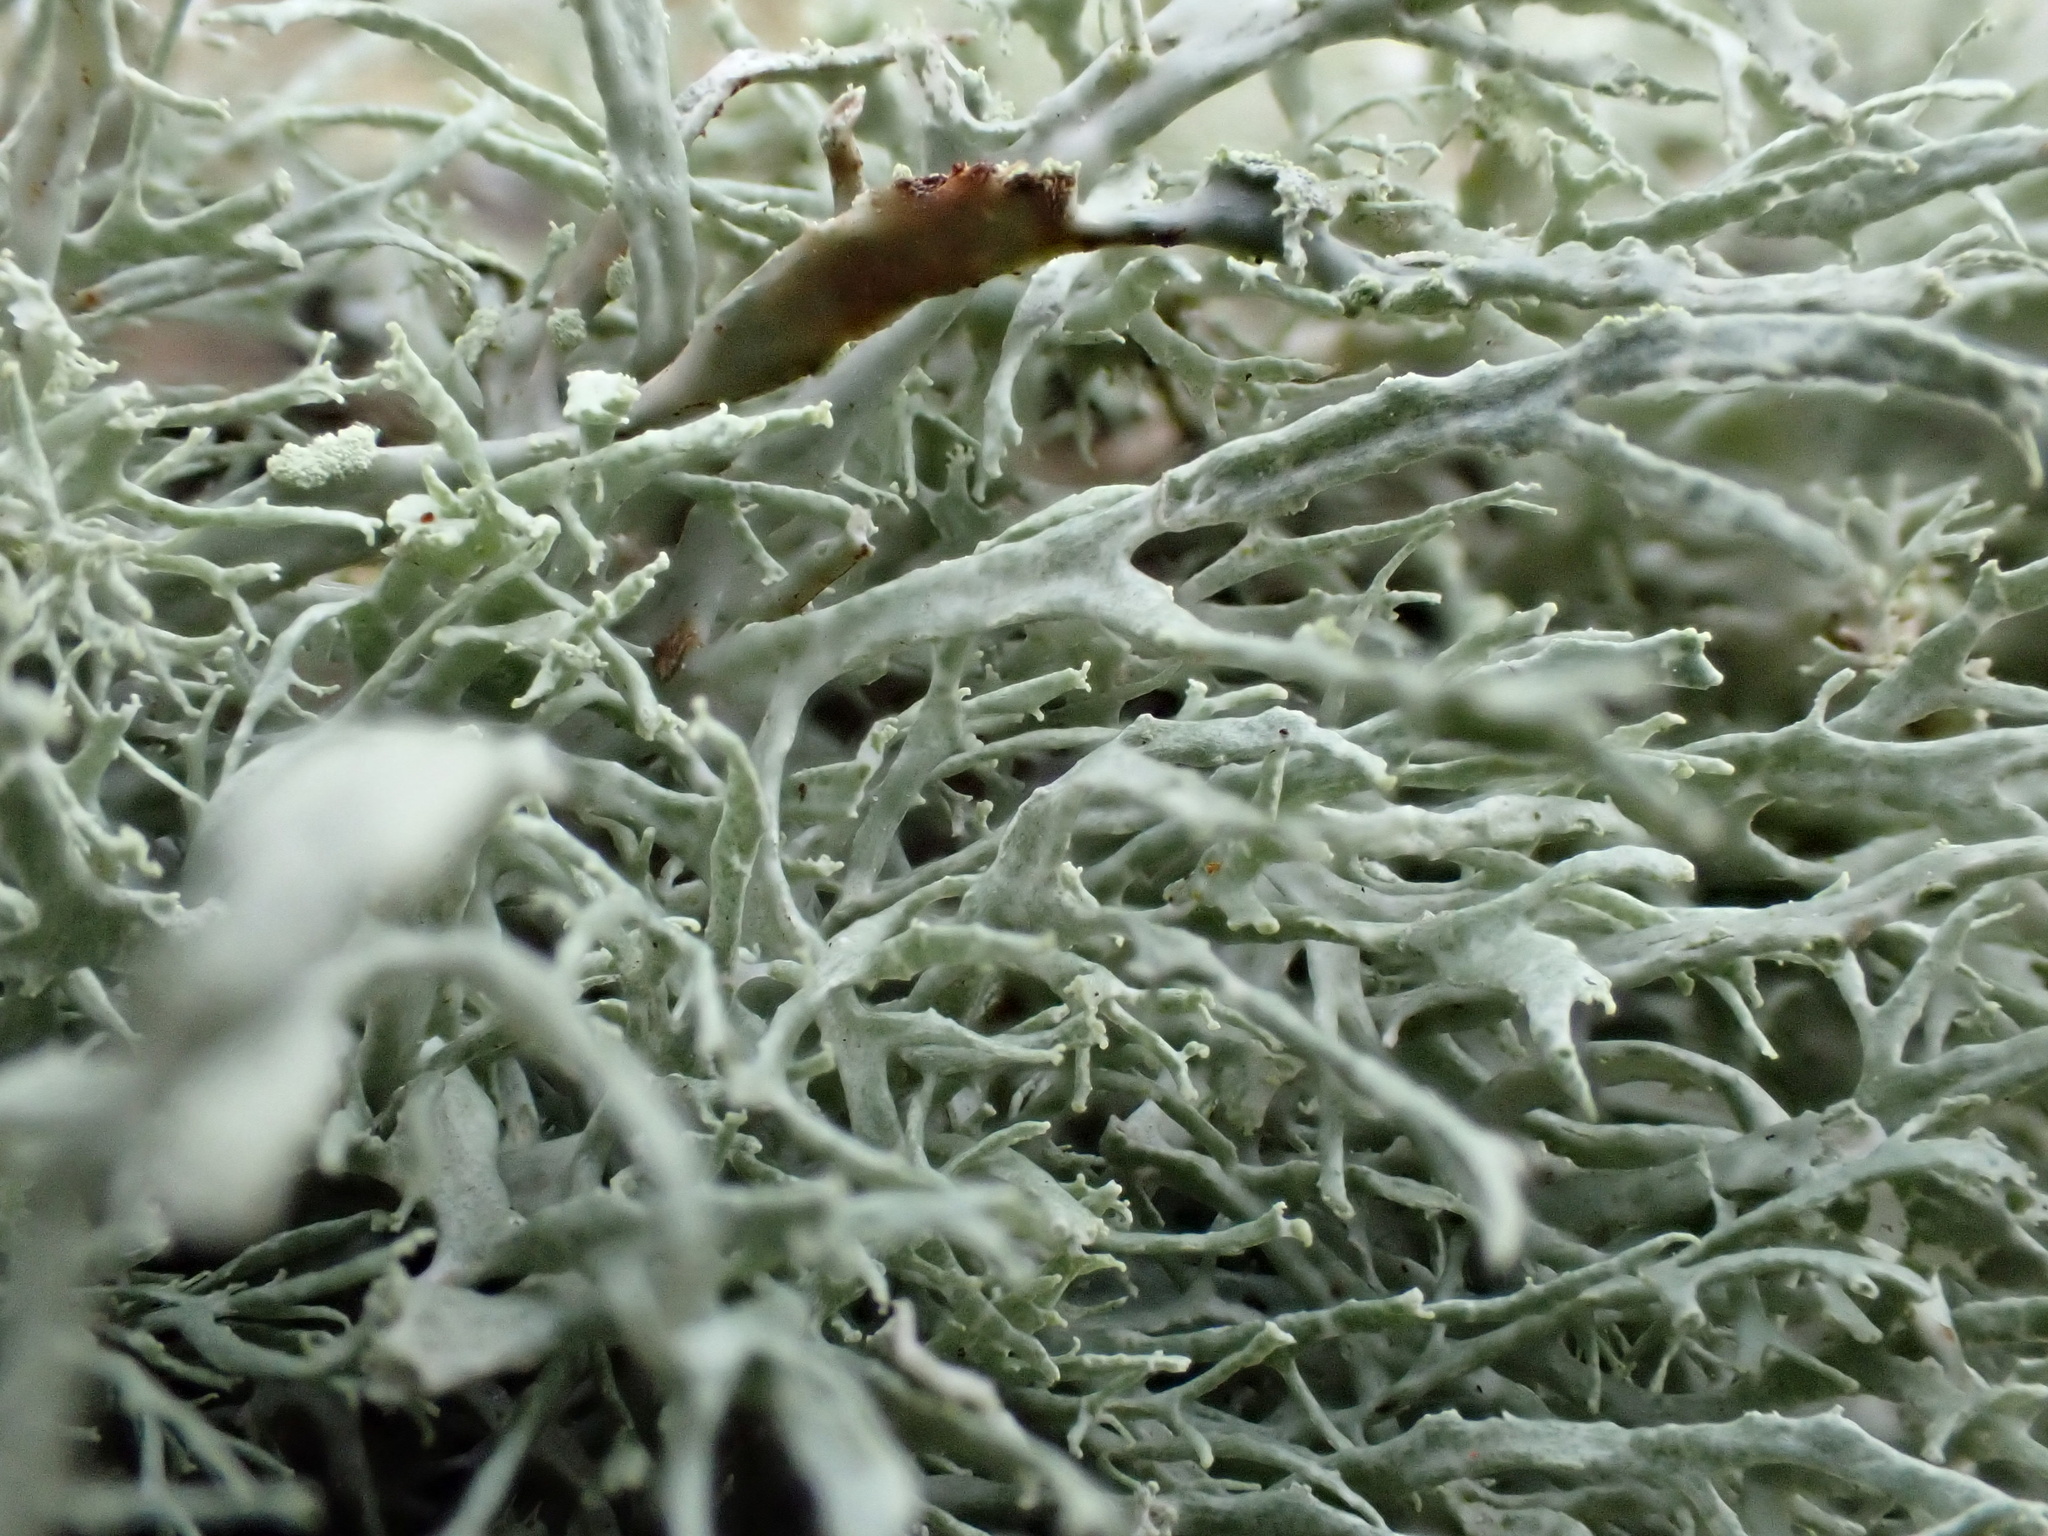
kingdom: Fungi
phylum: Ascomycota
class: Lecanoromycetes
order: Lecanorales
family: Ramalinaceae
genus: Ramalina
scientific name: Ramalina farinacea
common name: Farinose cartilage lichen
